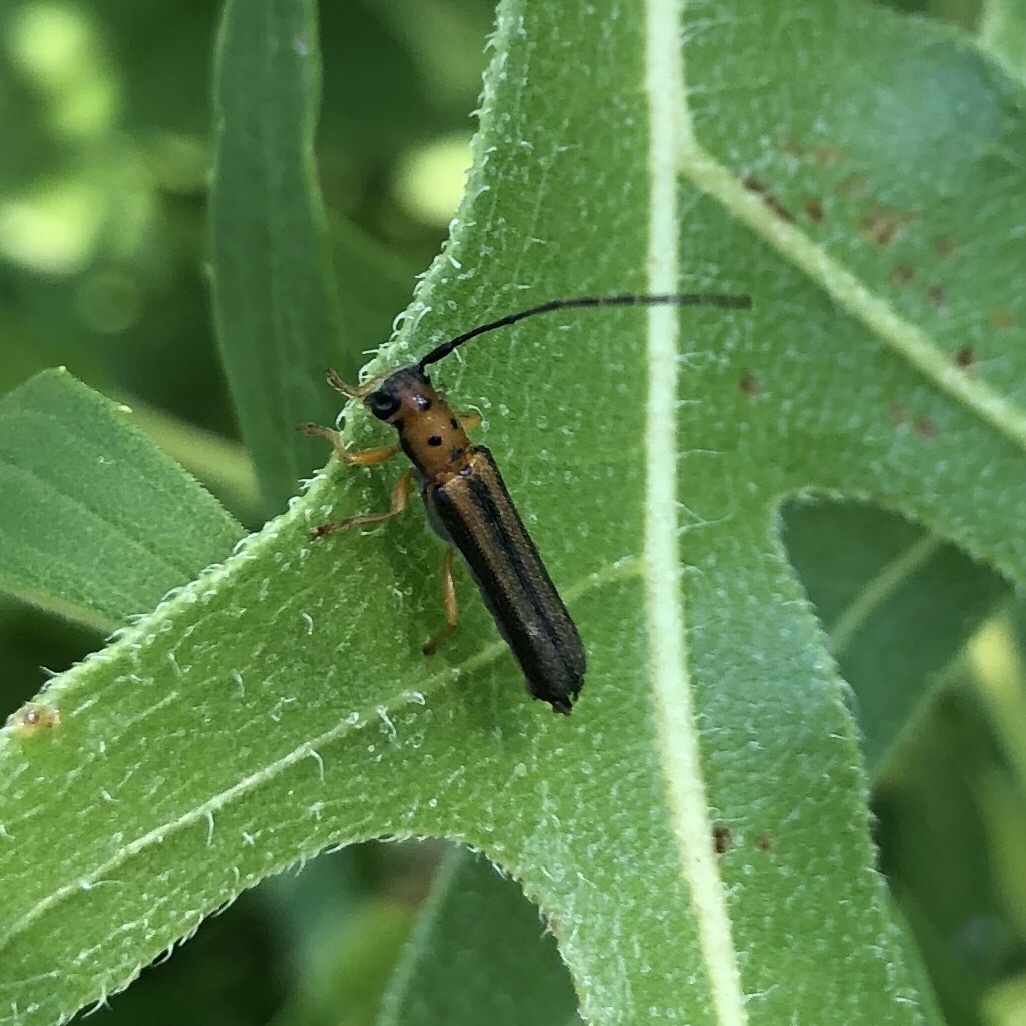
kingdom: Animalia
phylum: Arthropoda
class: Insecta
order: Coleoptera
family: Cerambycidae
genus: Oberea
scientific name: Oberea tripunctata
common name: Dogwood twig borer
